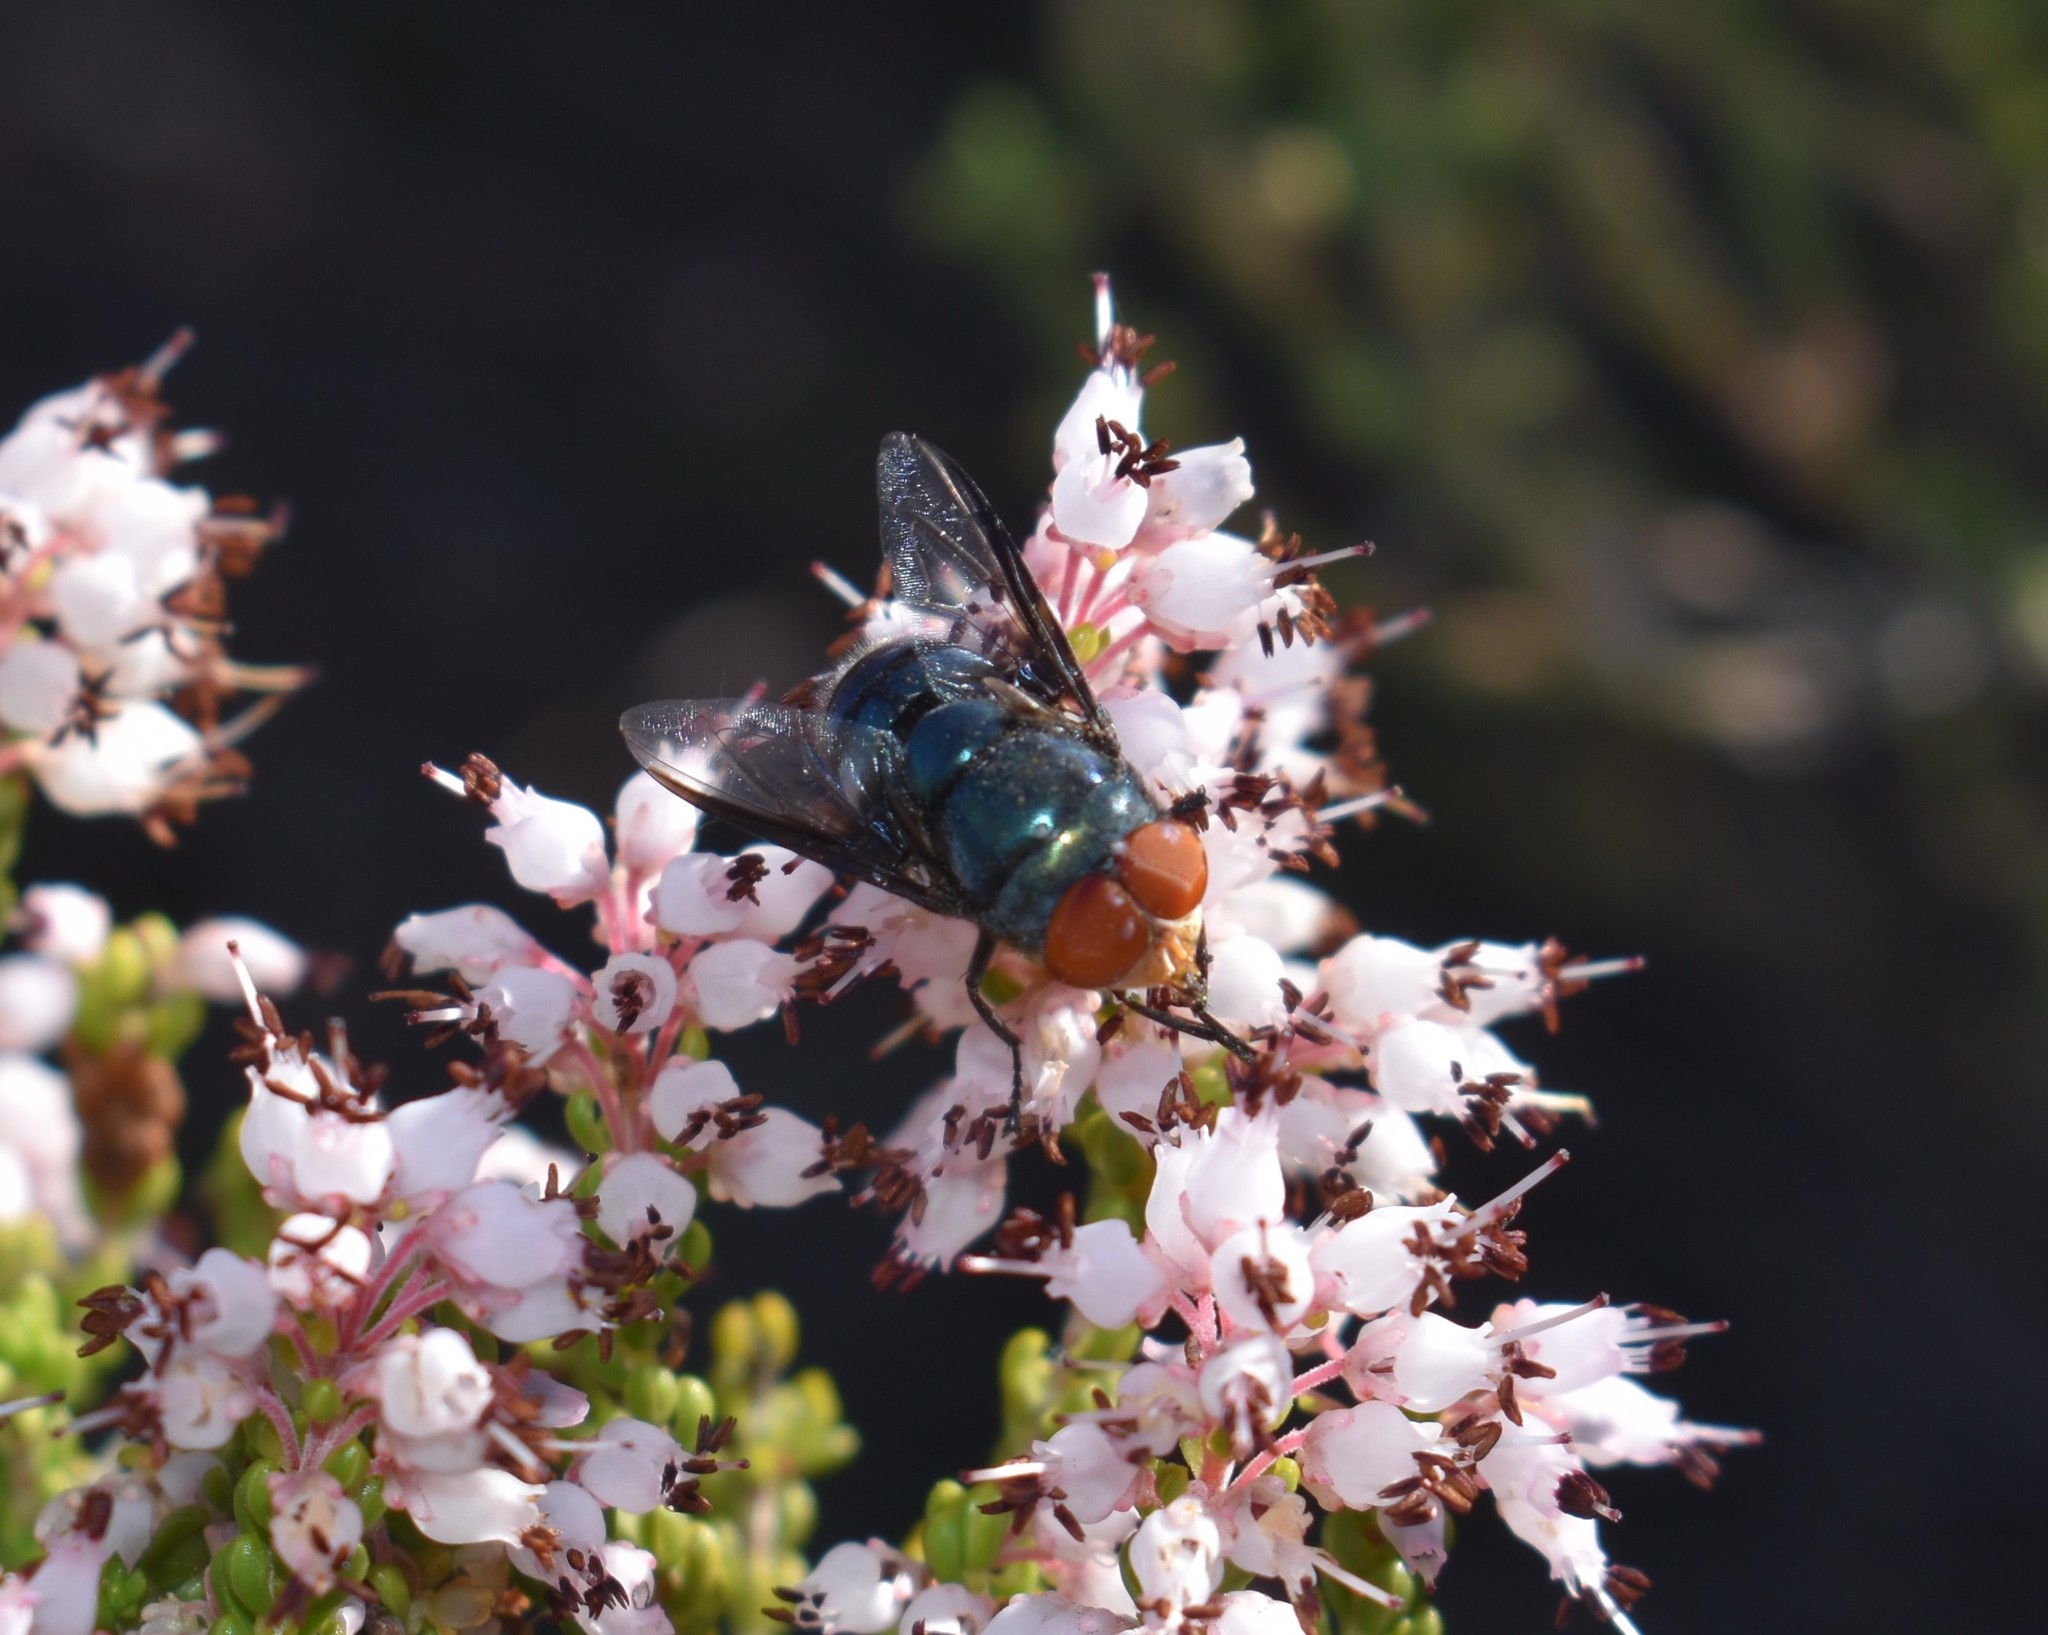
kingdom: Animalia
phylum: Arthropoda
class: Insecta
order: Diptera
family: Calliphoridae
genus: Chrysomya
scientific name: Chrysomya marginalis
